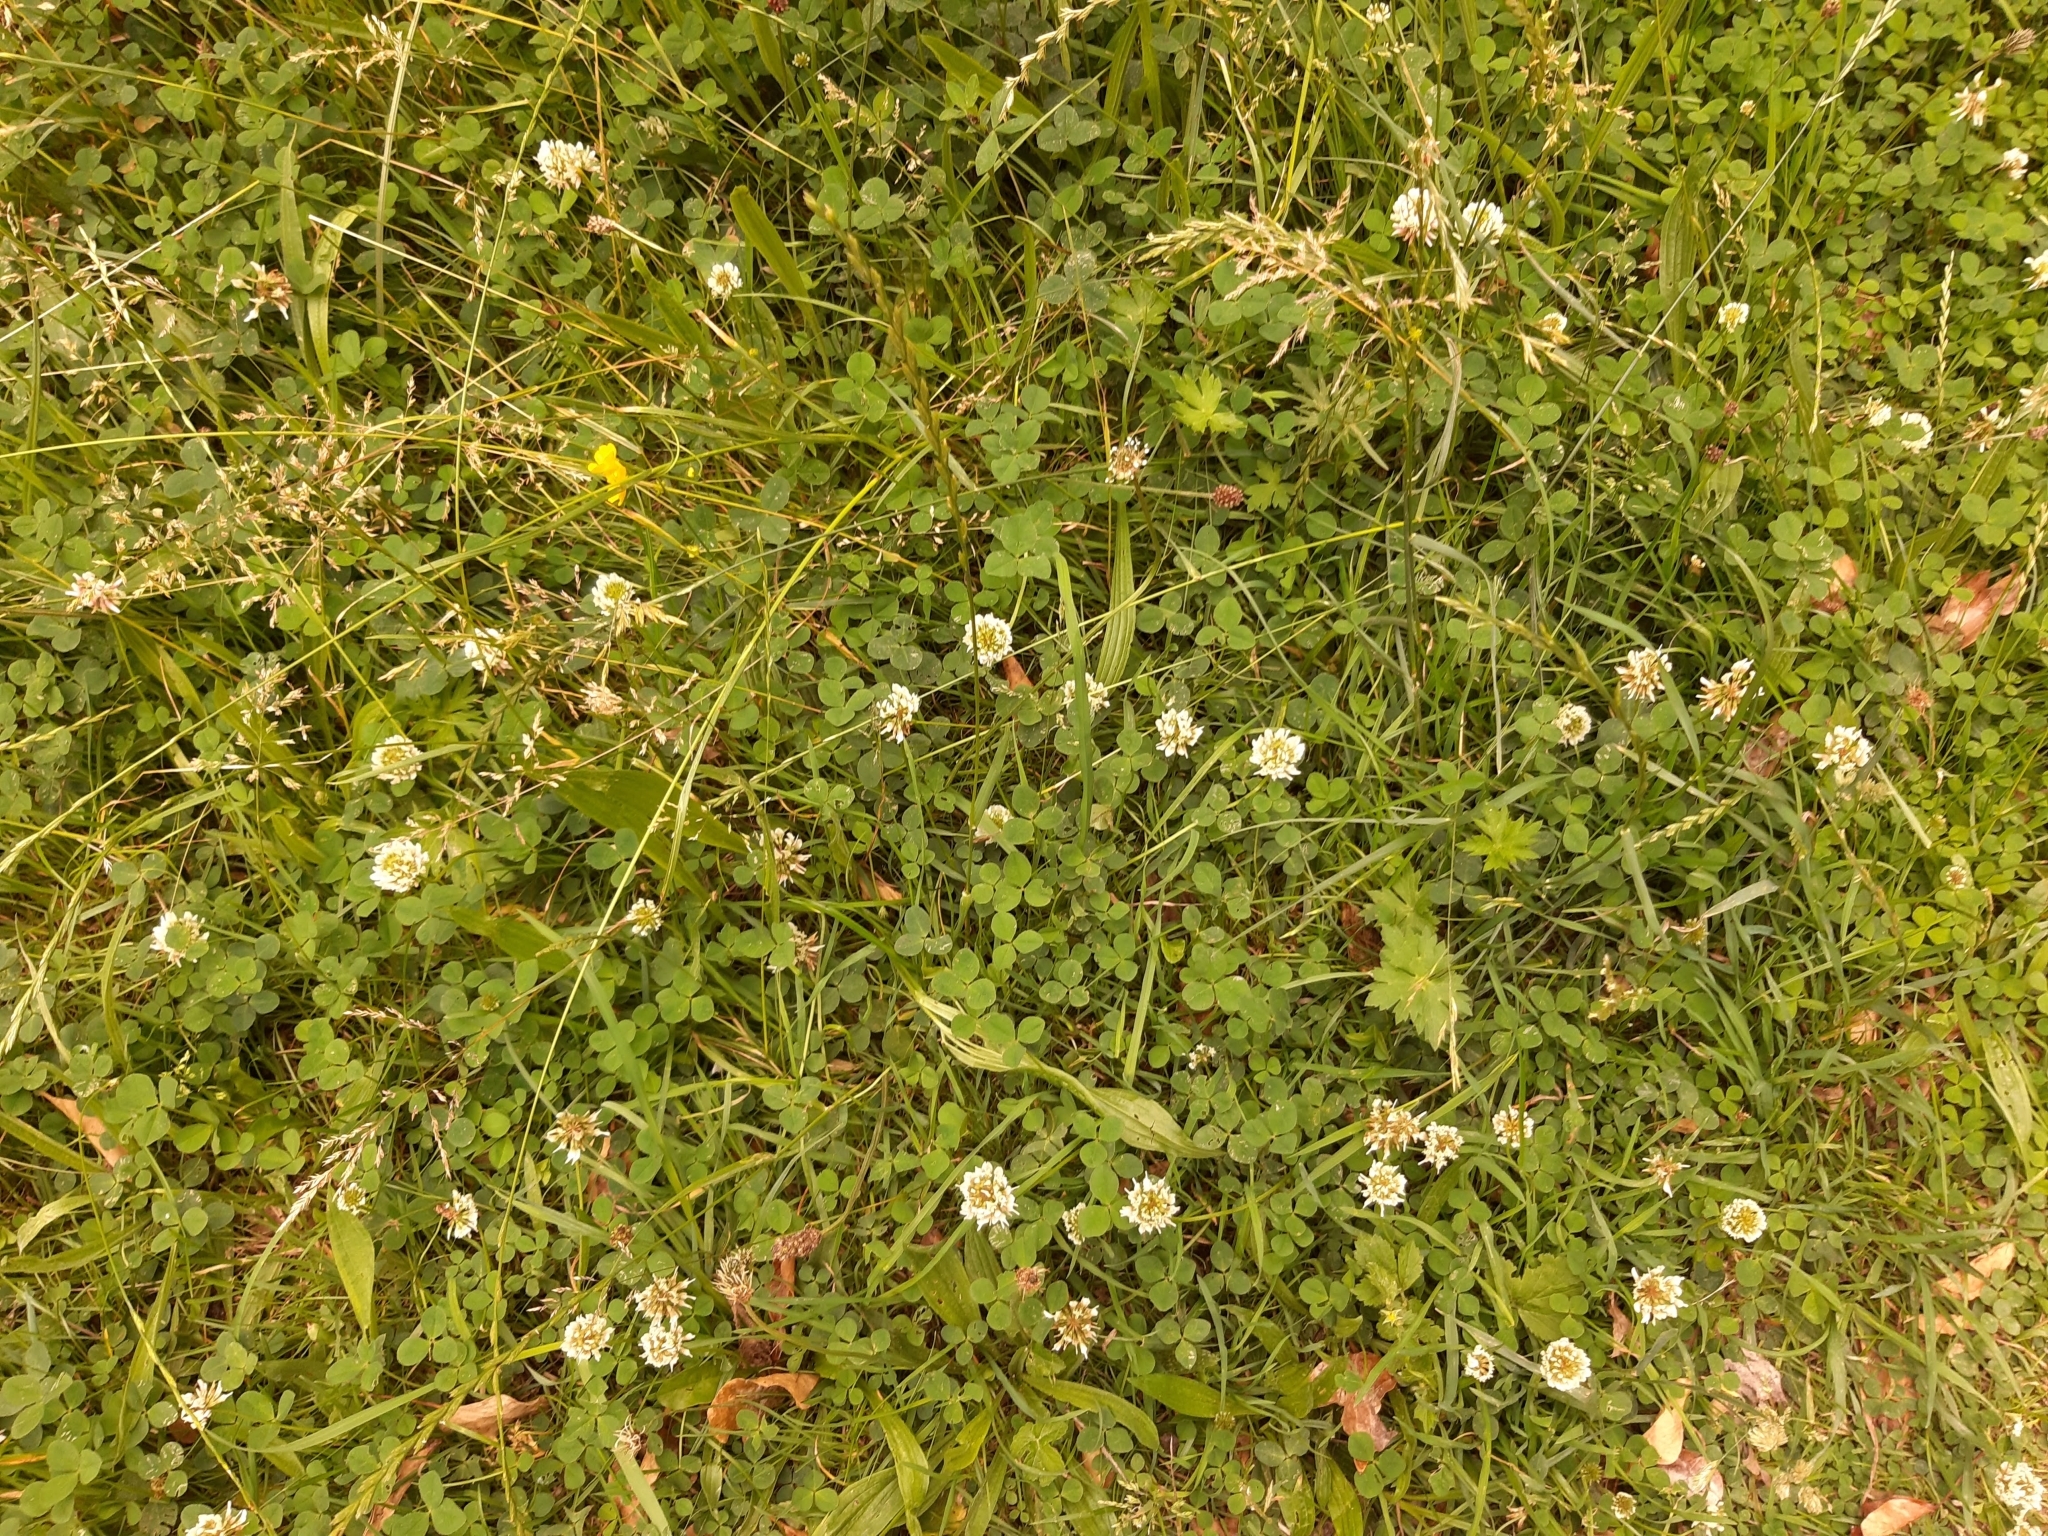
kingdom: Plantae
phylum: Tracheophyta
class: Magnoliopsida
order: Fabales
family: Fabaceae
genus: Trifolium
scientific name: Trifolium repens
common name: White clover
